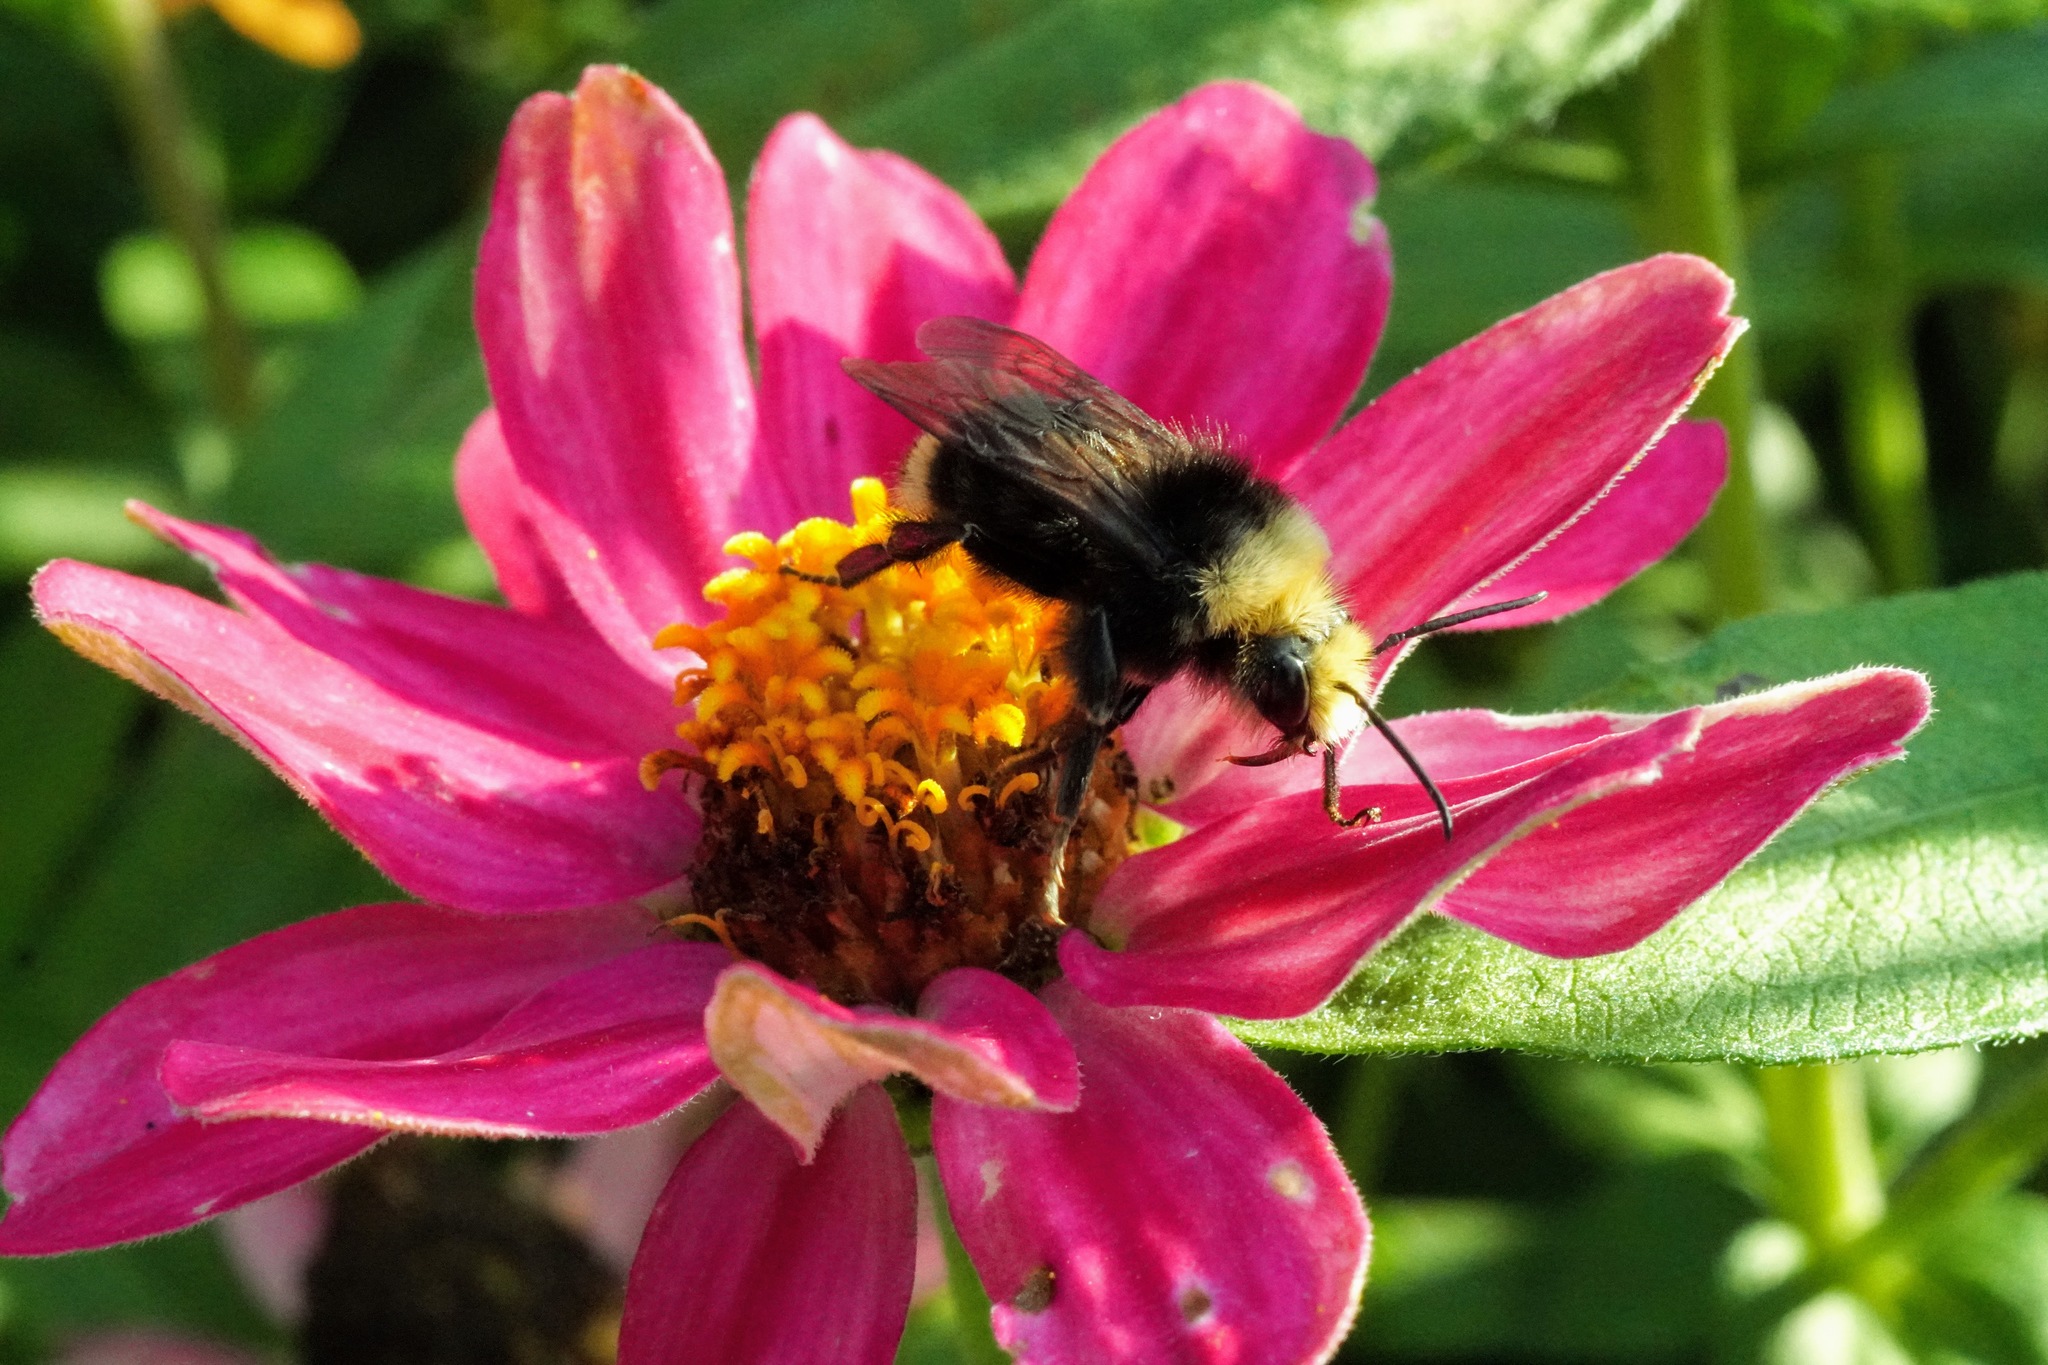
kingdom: Animalia
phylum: Arthropoda
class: Insecta
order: Hymenoptera
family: Apidae
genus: Bombus
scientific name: Bombus vosnesenskii
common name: Vosnesensky bumble bee
